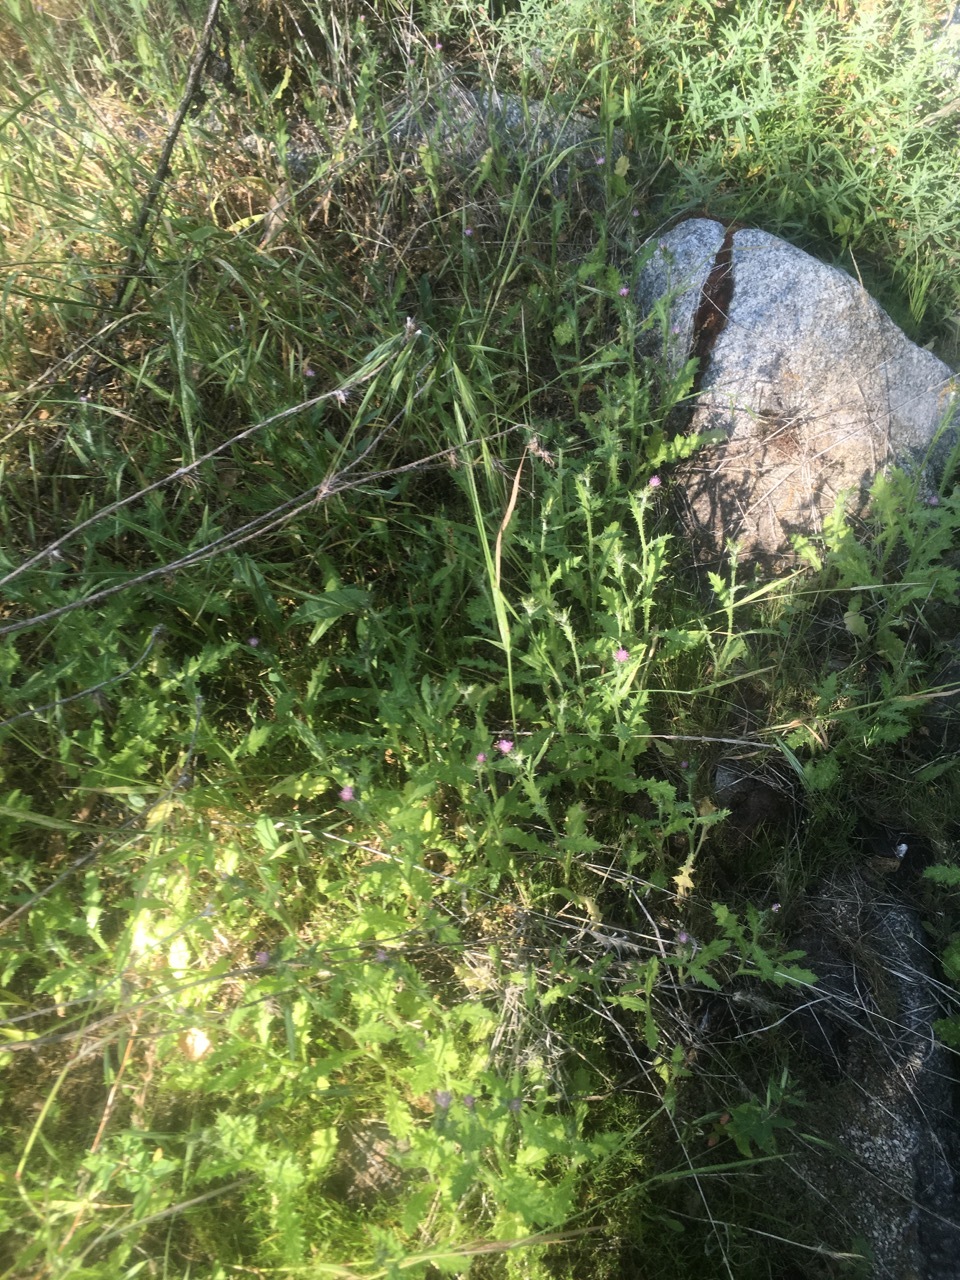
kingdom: Plantae
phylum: Tracheophyta
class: Magnoliopsida
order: Asterales
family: Asteraceae
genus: Carduus
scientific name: Carduus pycnocephalus
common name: Plymouth thistle
